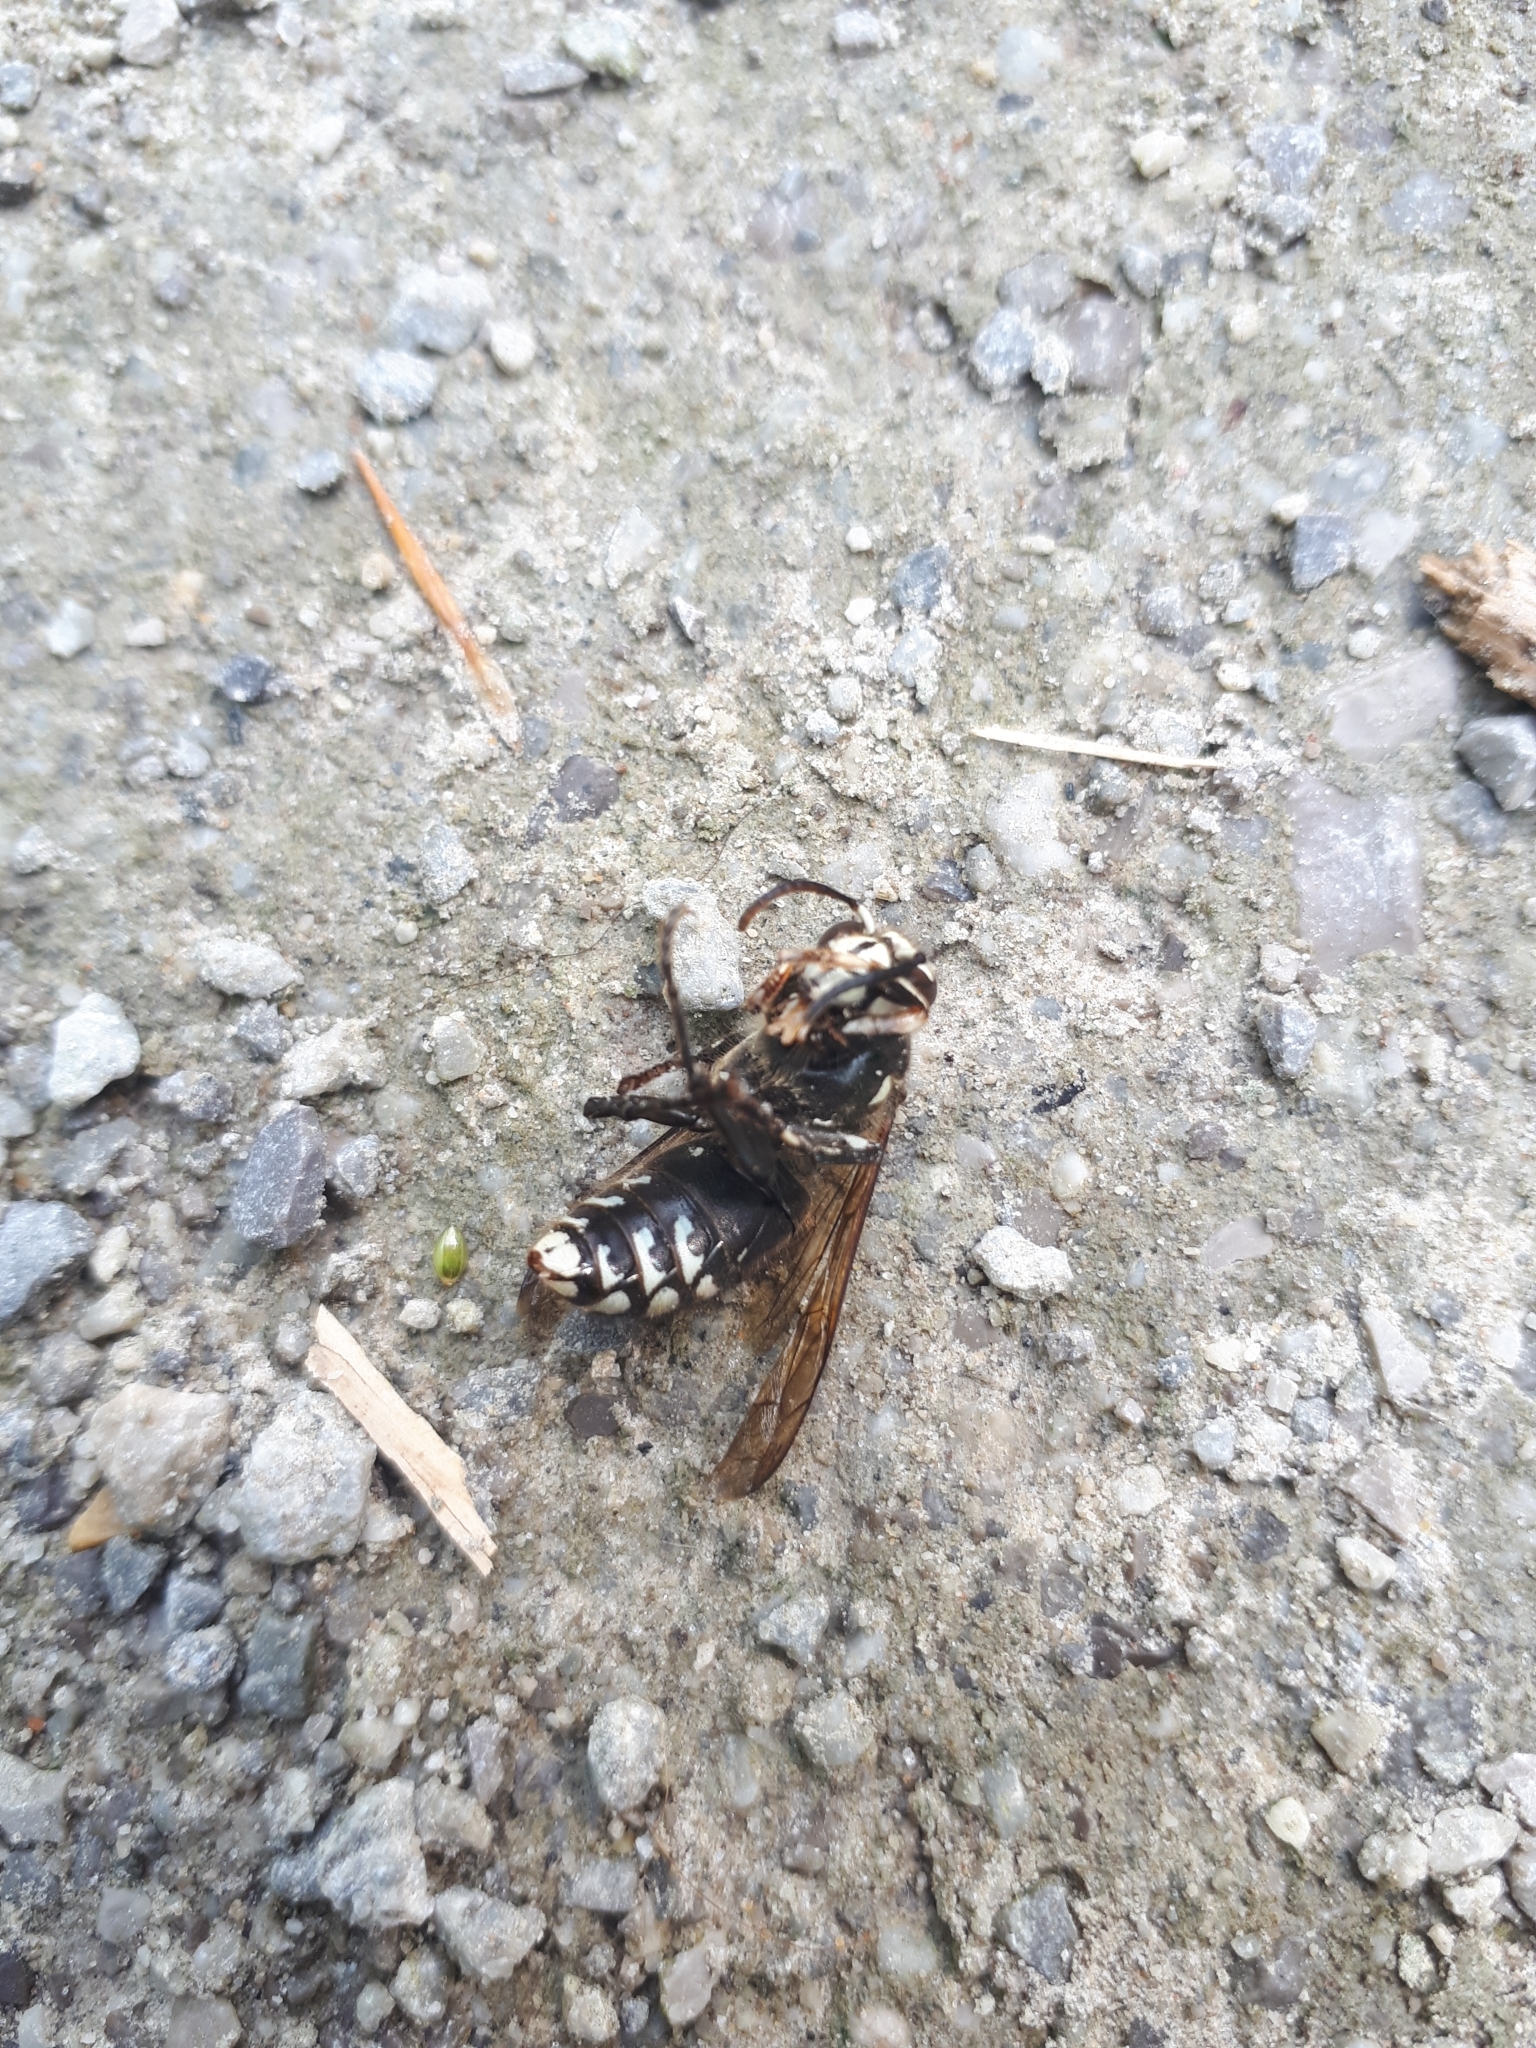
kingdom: Animalia
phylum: Arthropoda
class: Insecta
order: Hymenoptera
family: Vespidae
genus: Dolichovespula
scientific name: Dolichovespula maculata
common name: Bald-faced hornet
